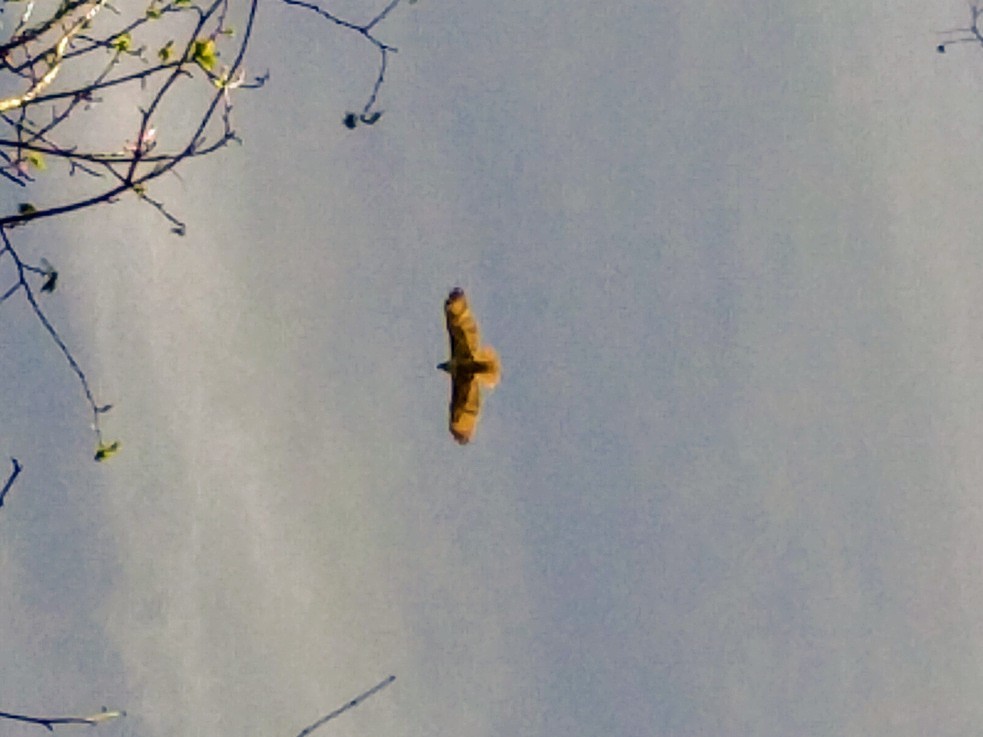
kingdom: Animalia
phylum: Chordata
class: Aves
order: Accipitriformes
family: Accipitridae
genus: Buteo
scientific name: Buteo jamaicensis
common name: Red-tailed hawk
